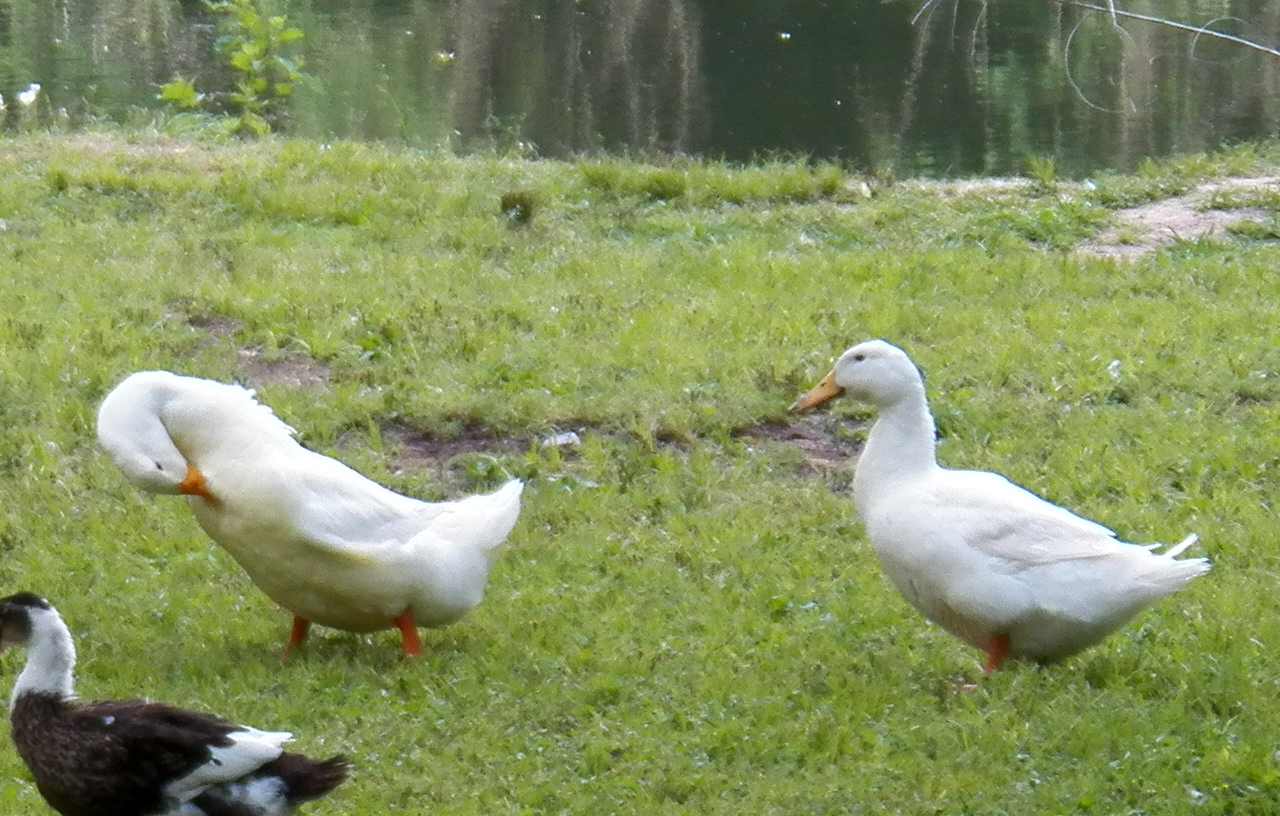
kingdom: Animalia
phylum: Chordata
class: Aves
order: Anseriformes
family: Anatidae
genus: Anas
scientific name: Anas platyrhynchos
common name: Mallard
